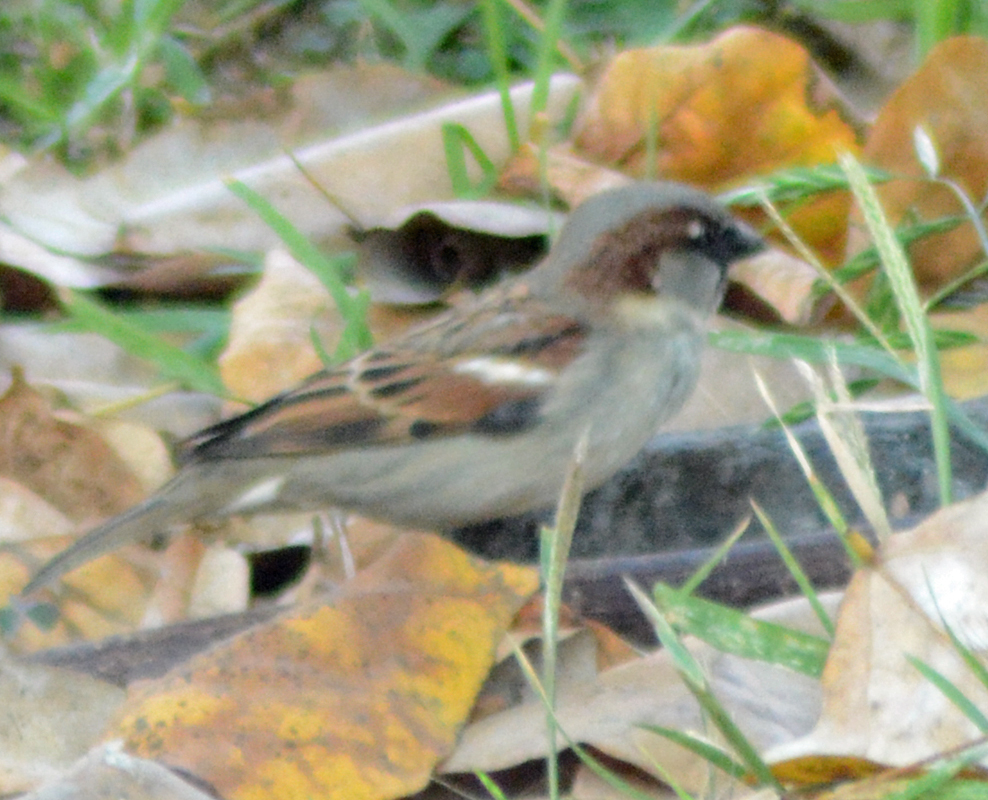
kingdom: Animalia
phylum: Chordata
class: Aves
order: Passeriformes
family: Passeridae
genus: Passer
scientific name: Passer domesticus
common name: House sparrow
